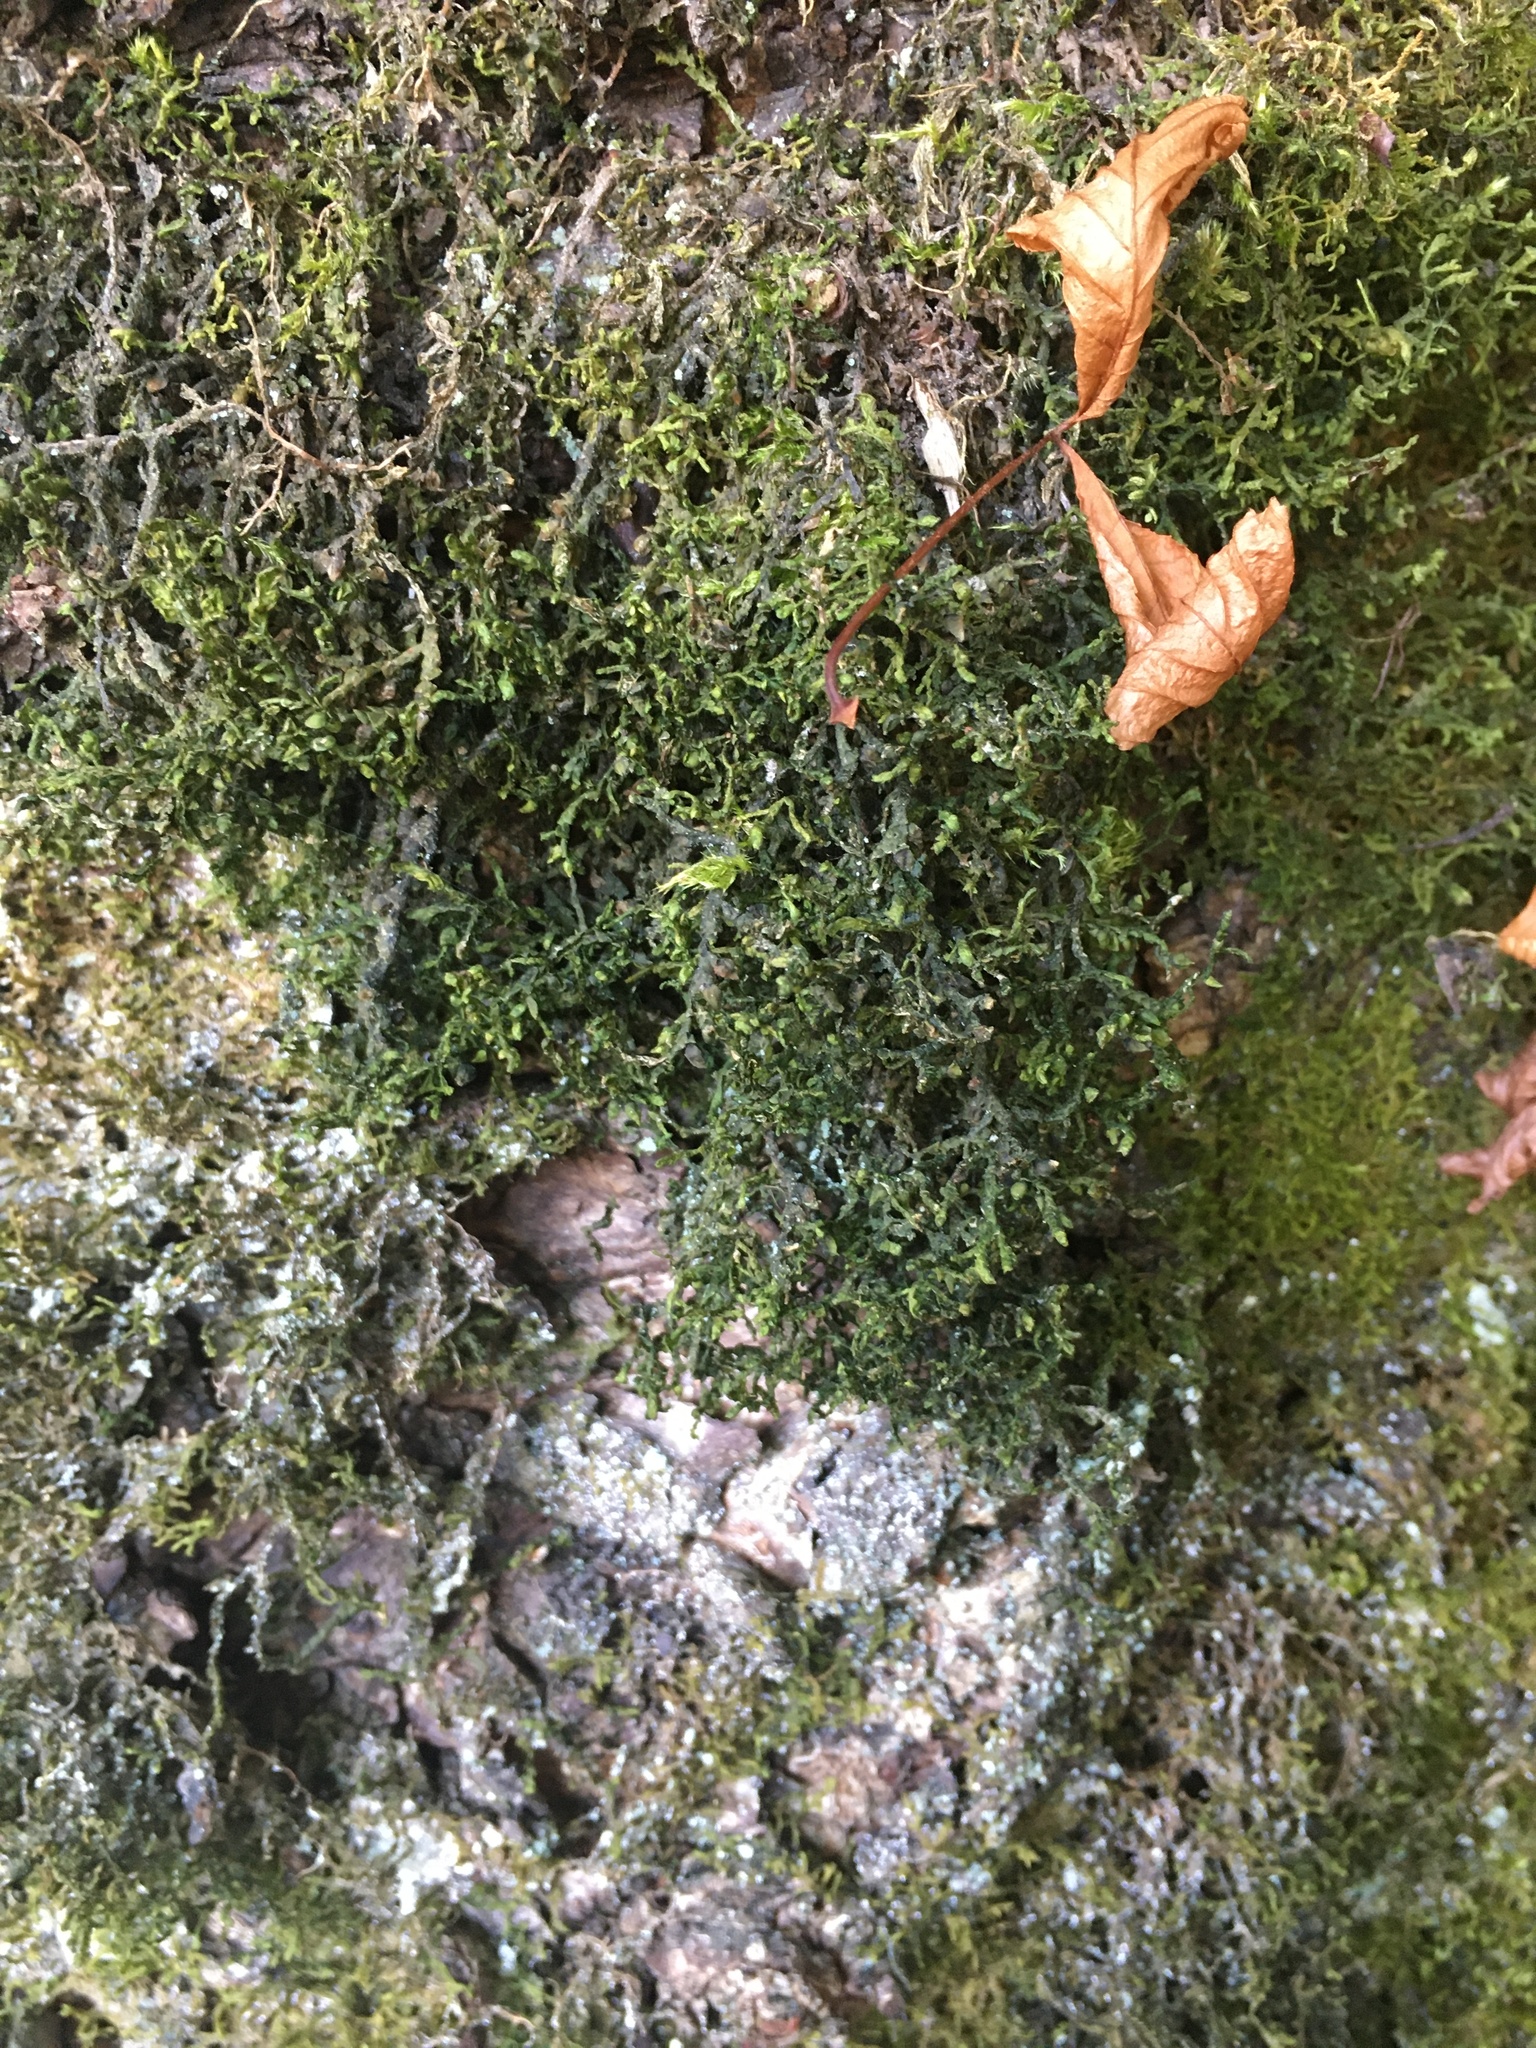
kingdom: Plantae
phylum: Marchantiophyta
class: Jungermanniopsida
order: Porellales
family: Porellaceae
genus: Porella
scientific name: Porella cordaeana
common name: Cliff scalewort
